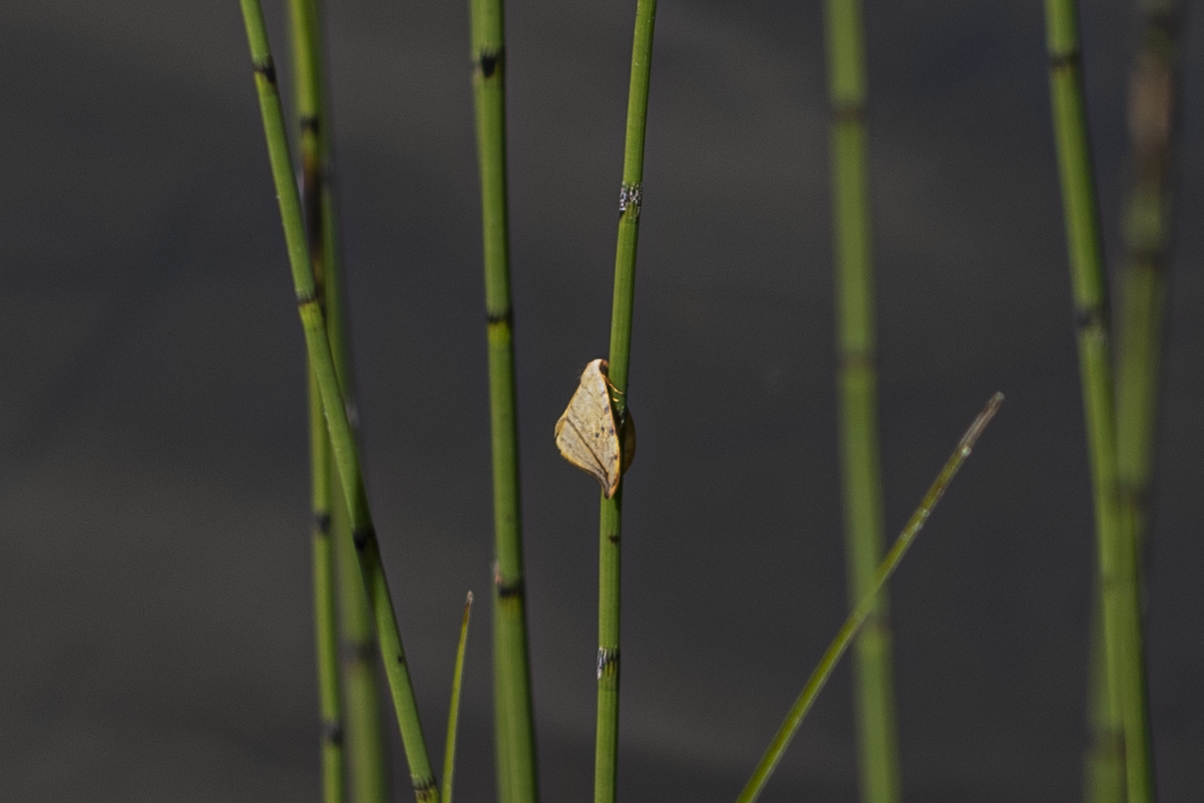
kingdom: Animalia
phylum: Arthropoda
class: Insecta
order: Lepidoptera
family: Drepanidae
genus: Drepana
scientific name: Drepana arcuata
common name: Arched hooktip moth
